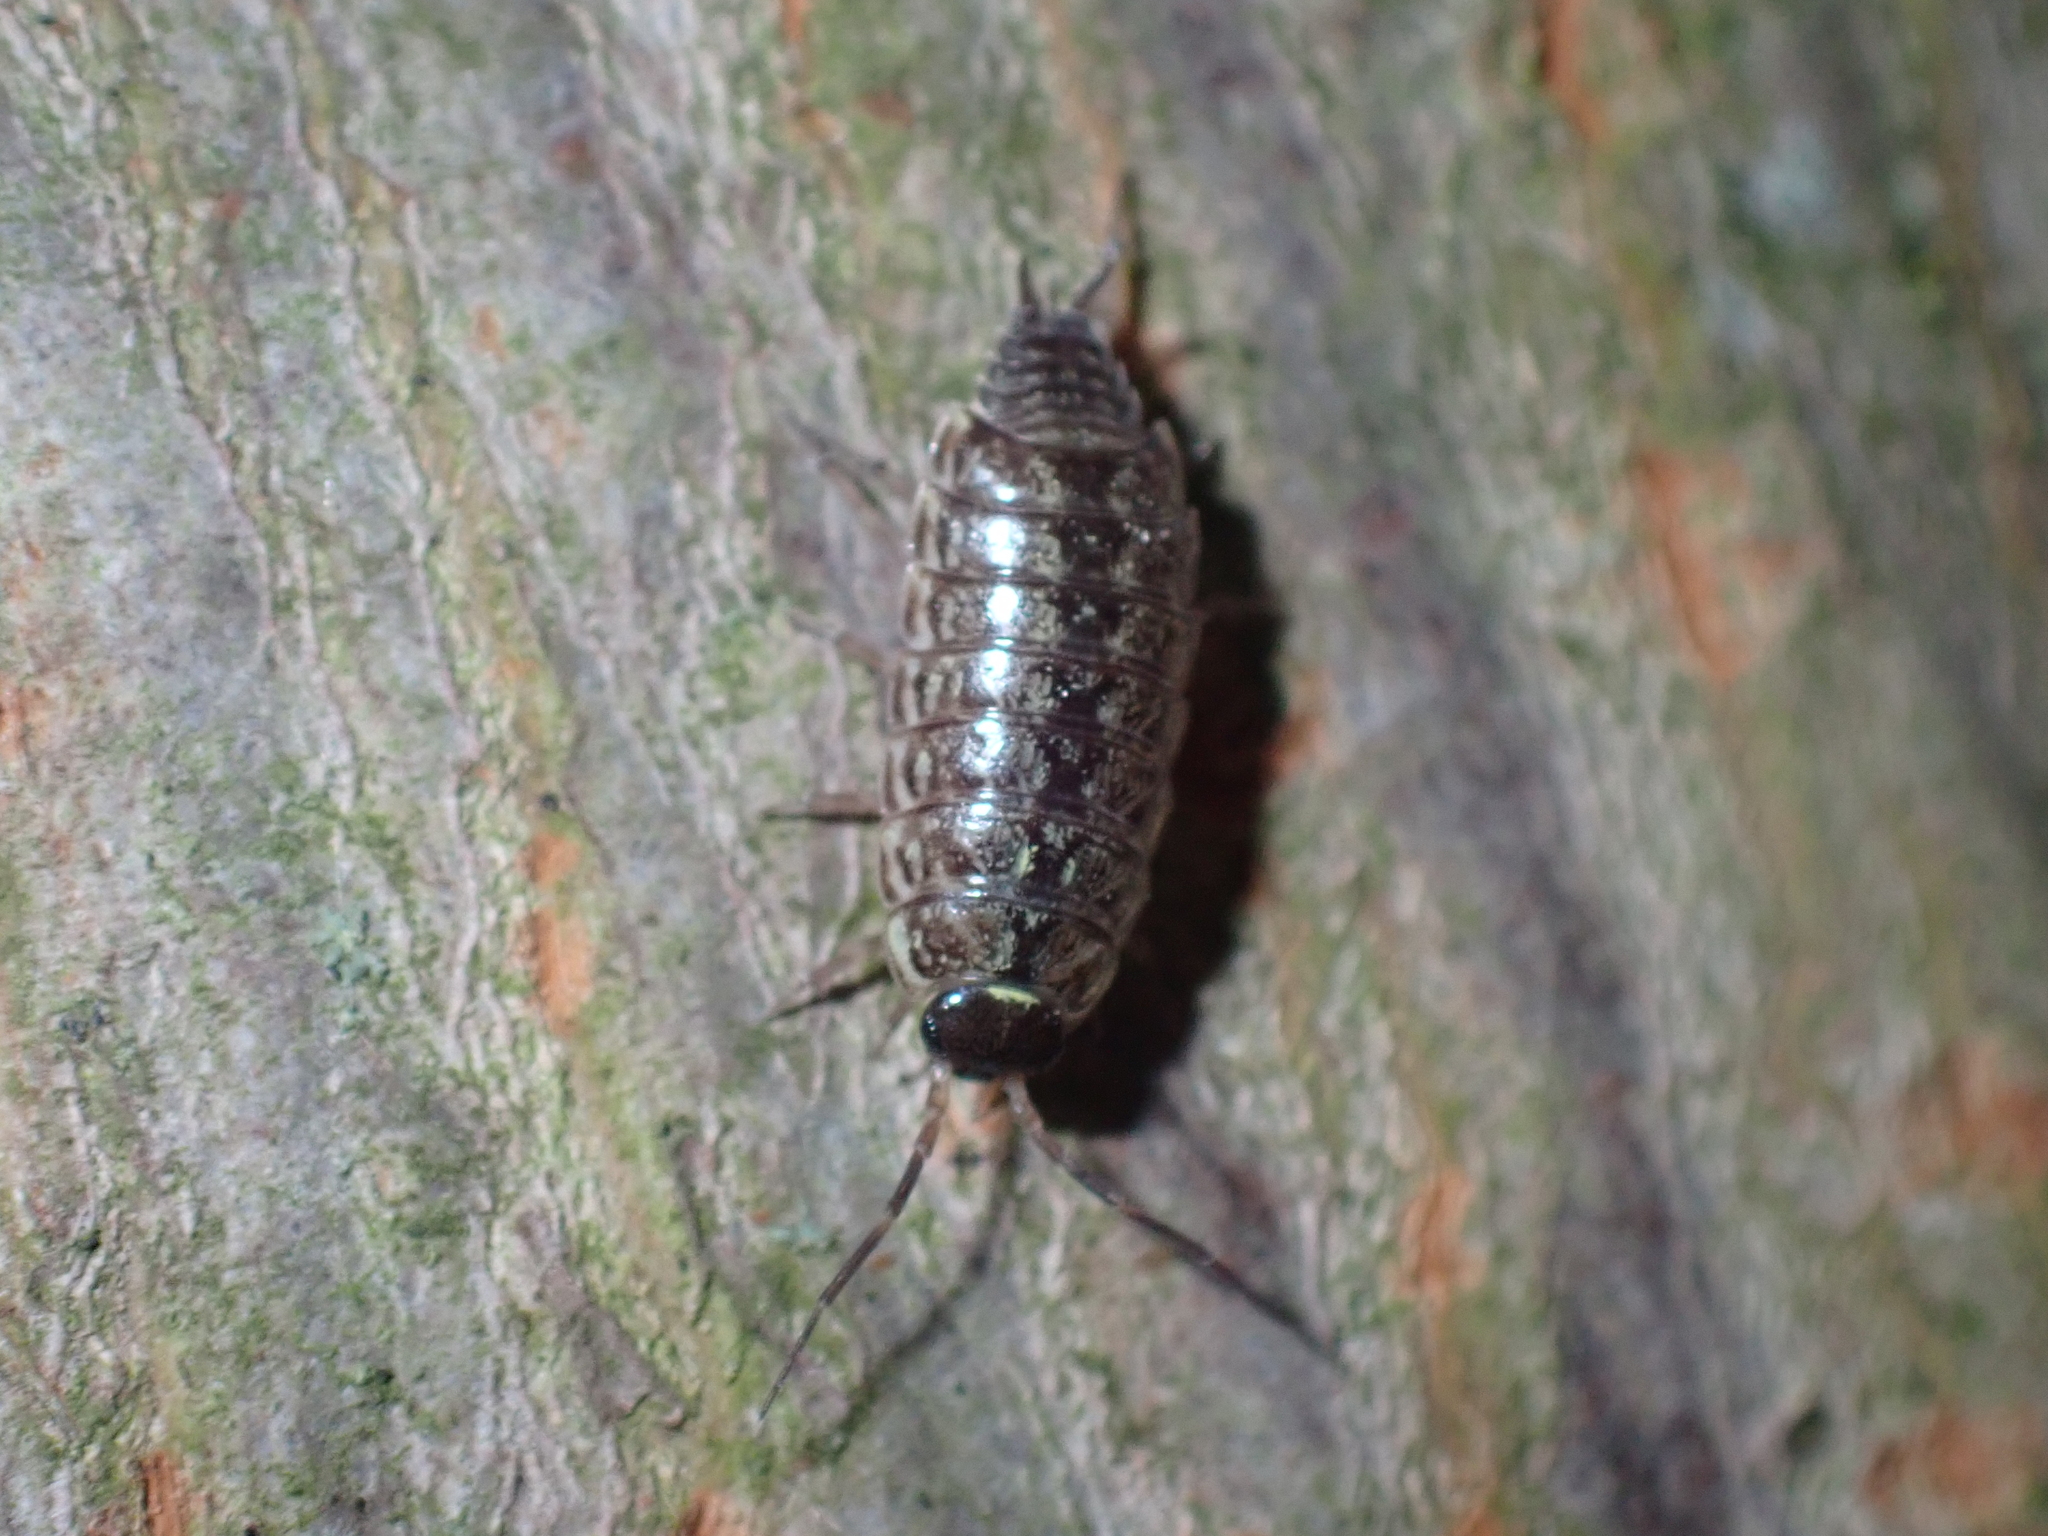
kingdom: Animalia
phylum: Arthropoda
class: Malacostraca
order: Isopoda
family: Philosciidae
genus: Philoscia
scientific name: Philoscia muscorum
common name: Common striped woodlouse
